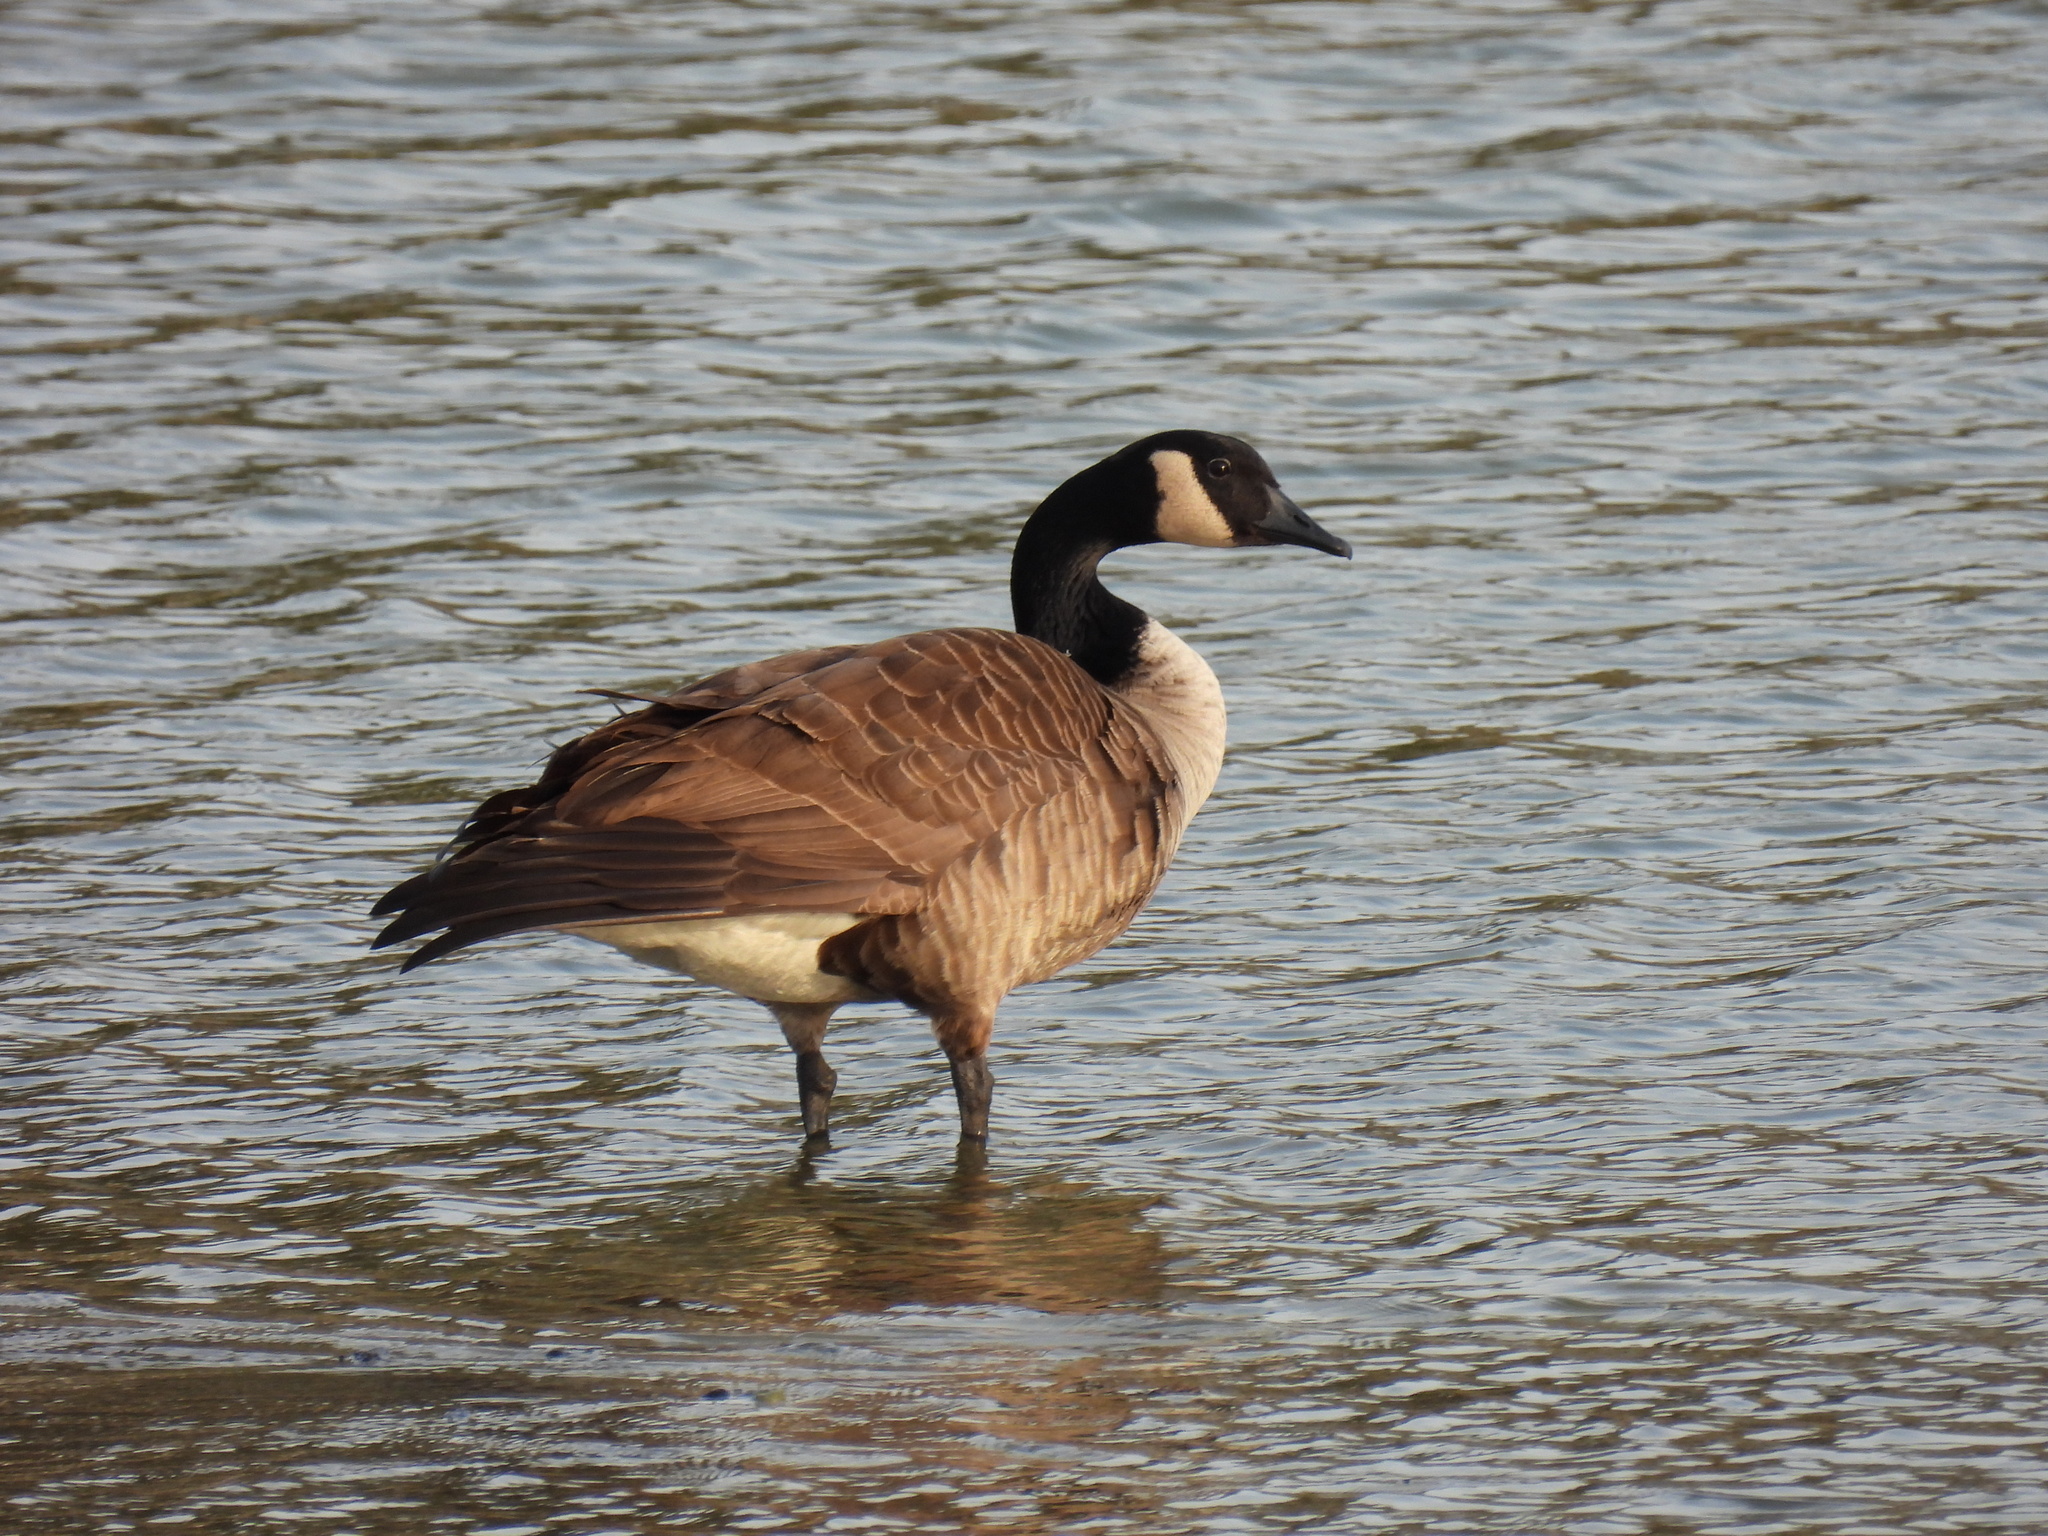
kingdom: Animalia
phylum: Chordata
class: Aves
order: Anseriformes
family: Anatidae
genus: Branta
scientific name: Branta canadensis
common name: Canada goose
